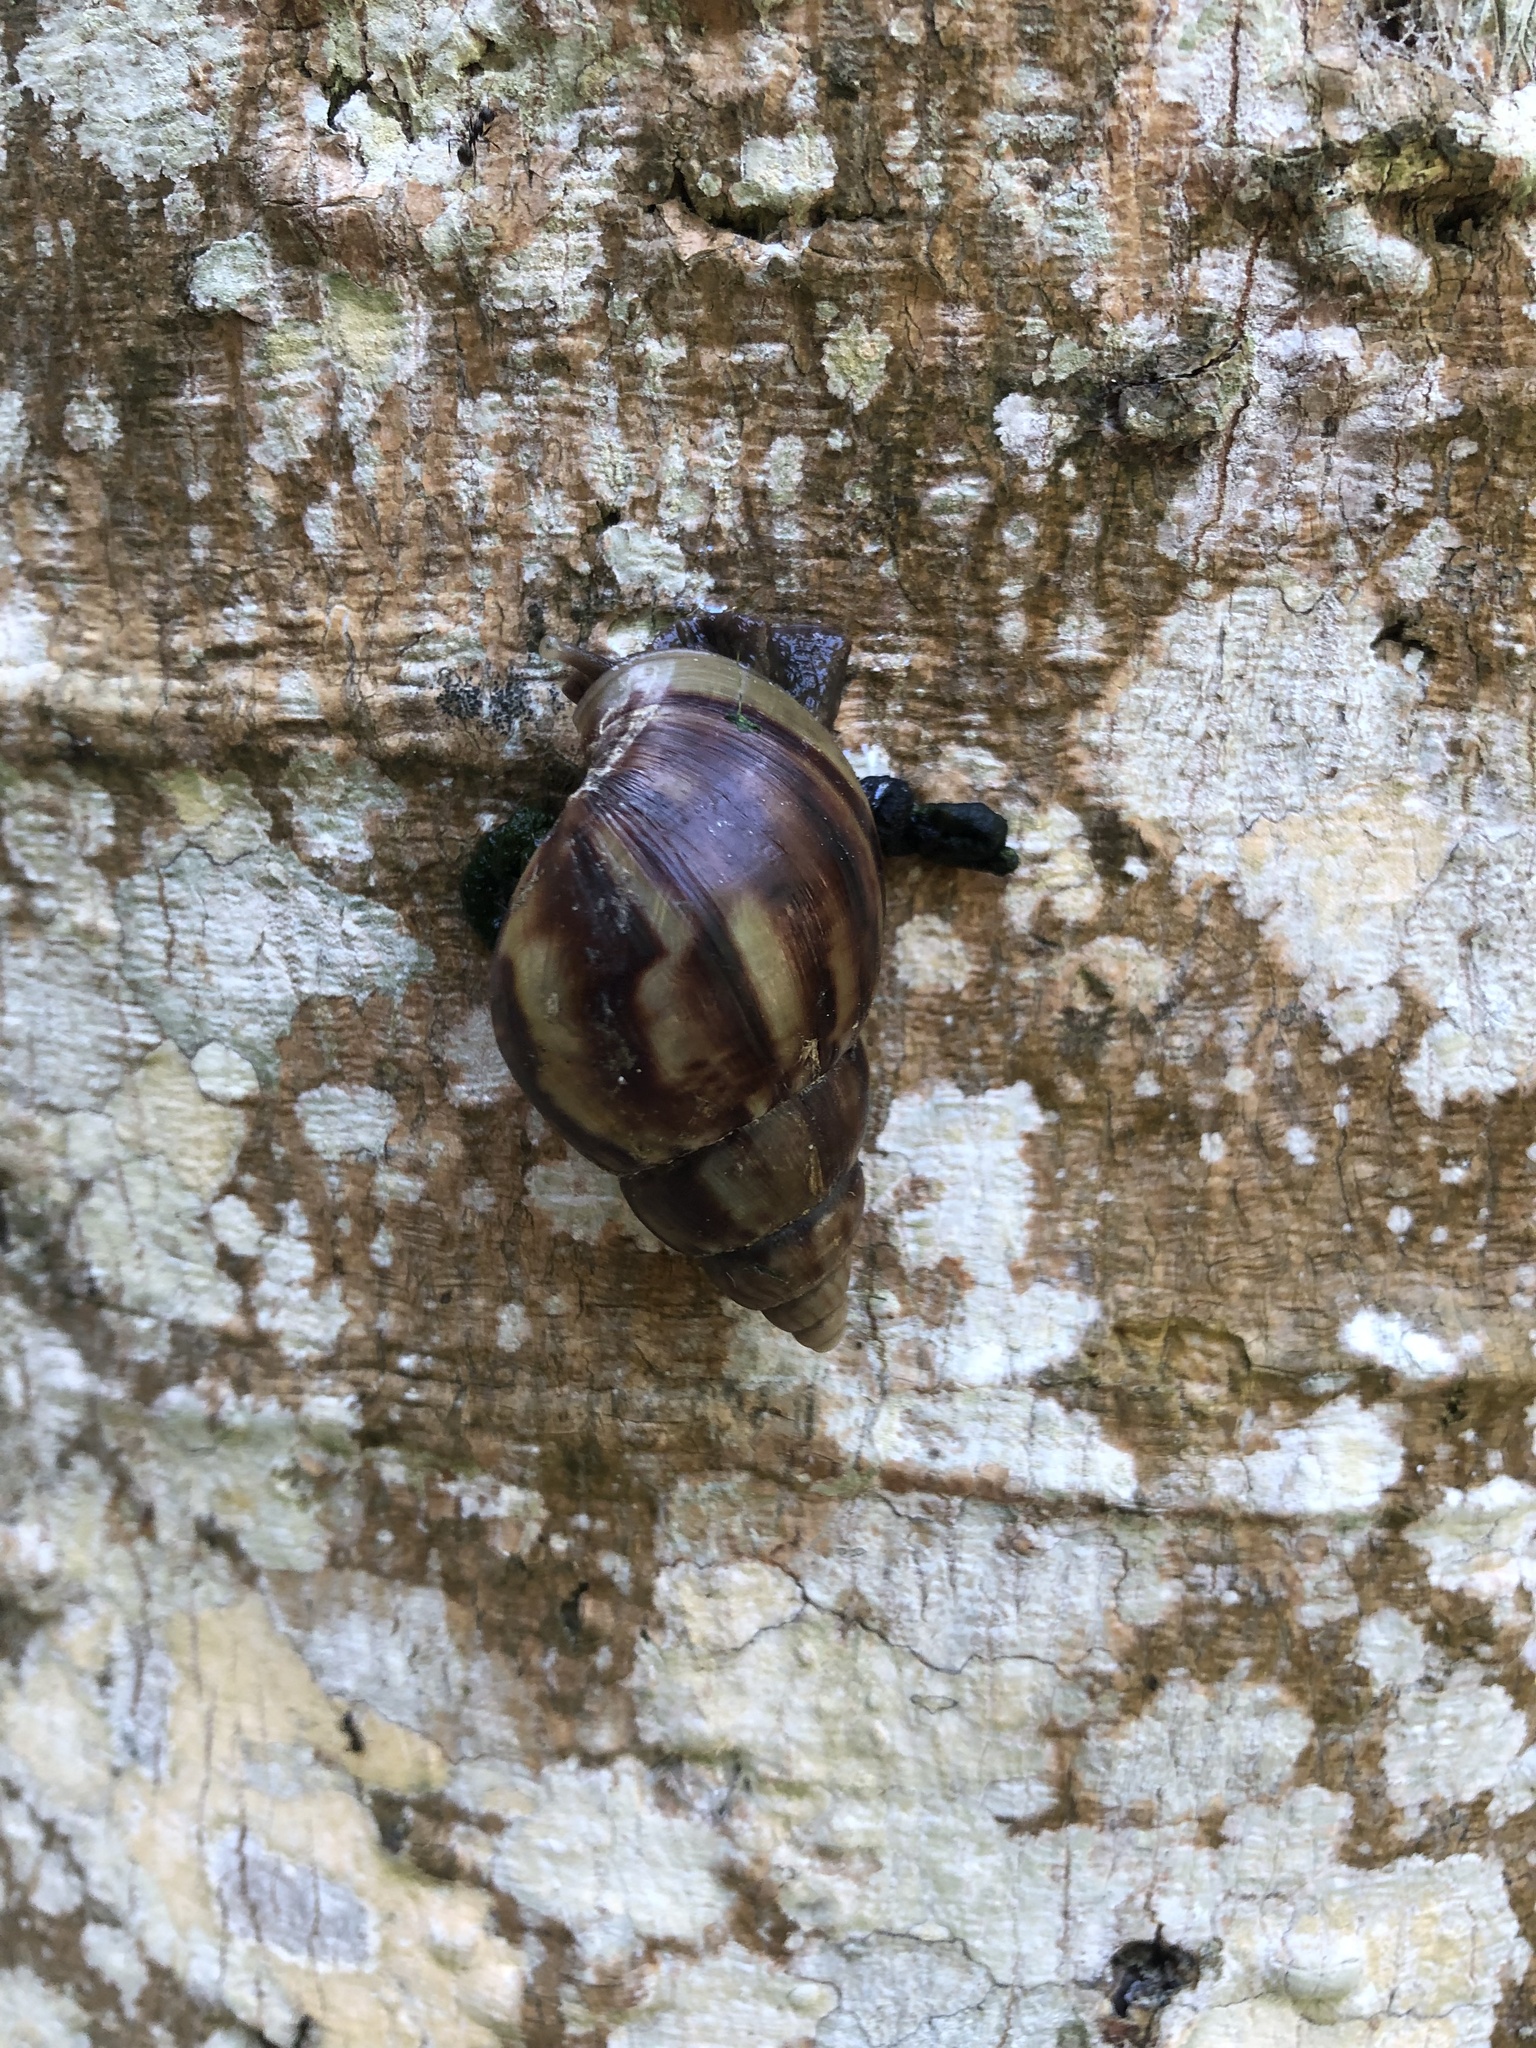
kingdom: Animalia
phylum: Mollusca
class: Gastropoda
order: Stylommatophora
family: Achatinidae
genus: Lissachatina
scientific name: Lissachatina fulica
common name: Giant african snail
